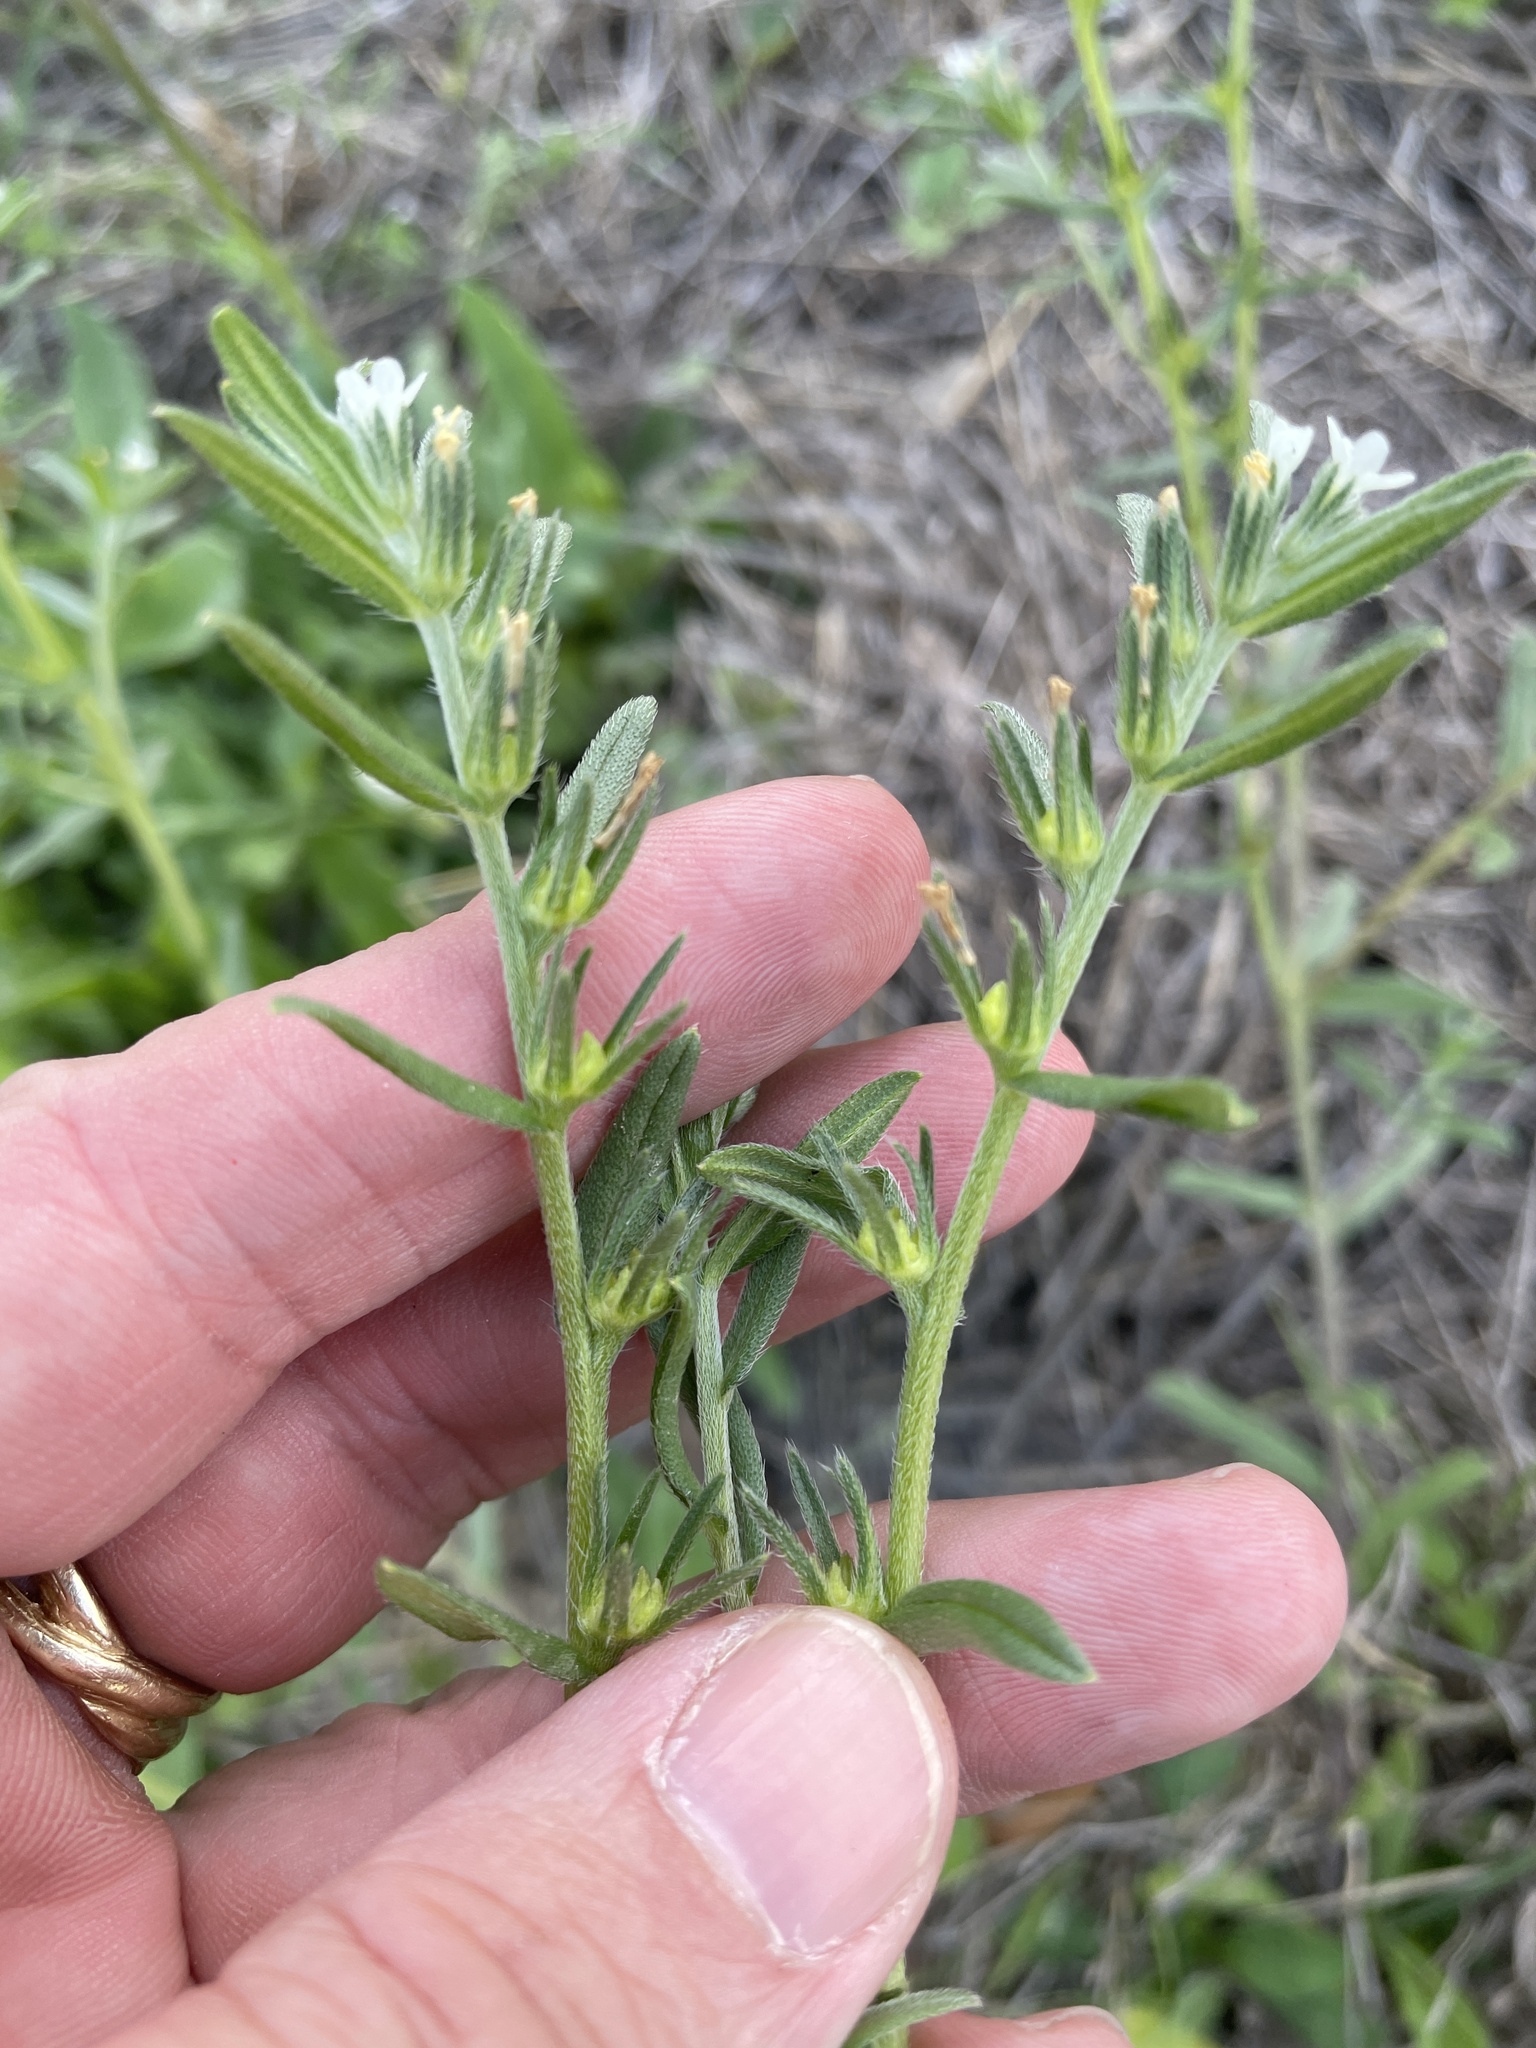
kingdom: Plantae
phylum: Tracheophyta
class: Magnoliopsida
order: Boraginales
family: Boraginaceae
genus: Buglossoides
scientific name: Buglossoides arvensis
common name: Corn gromwell
